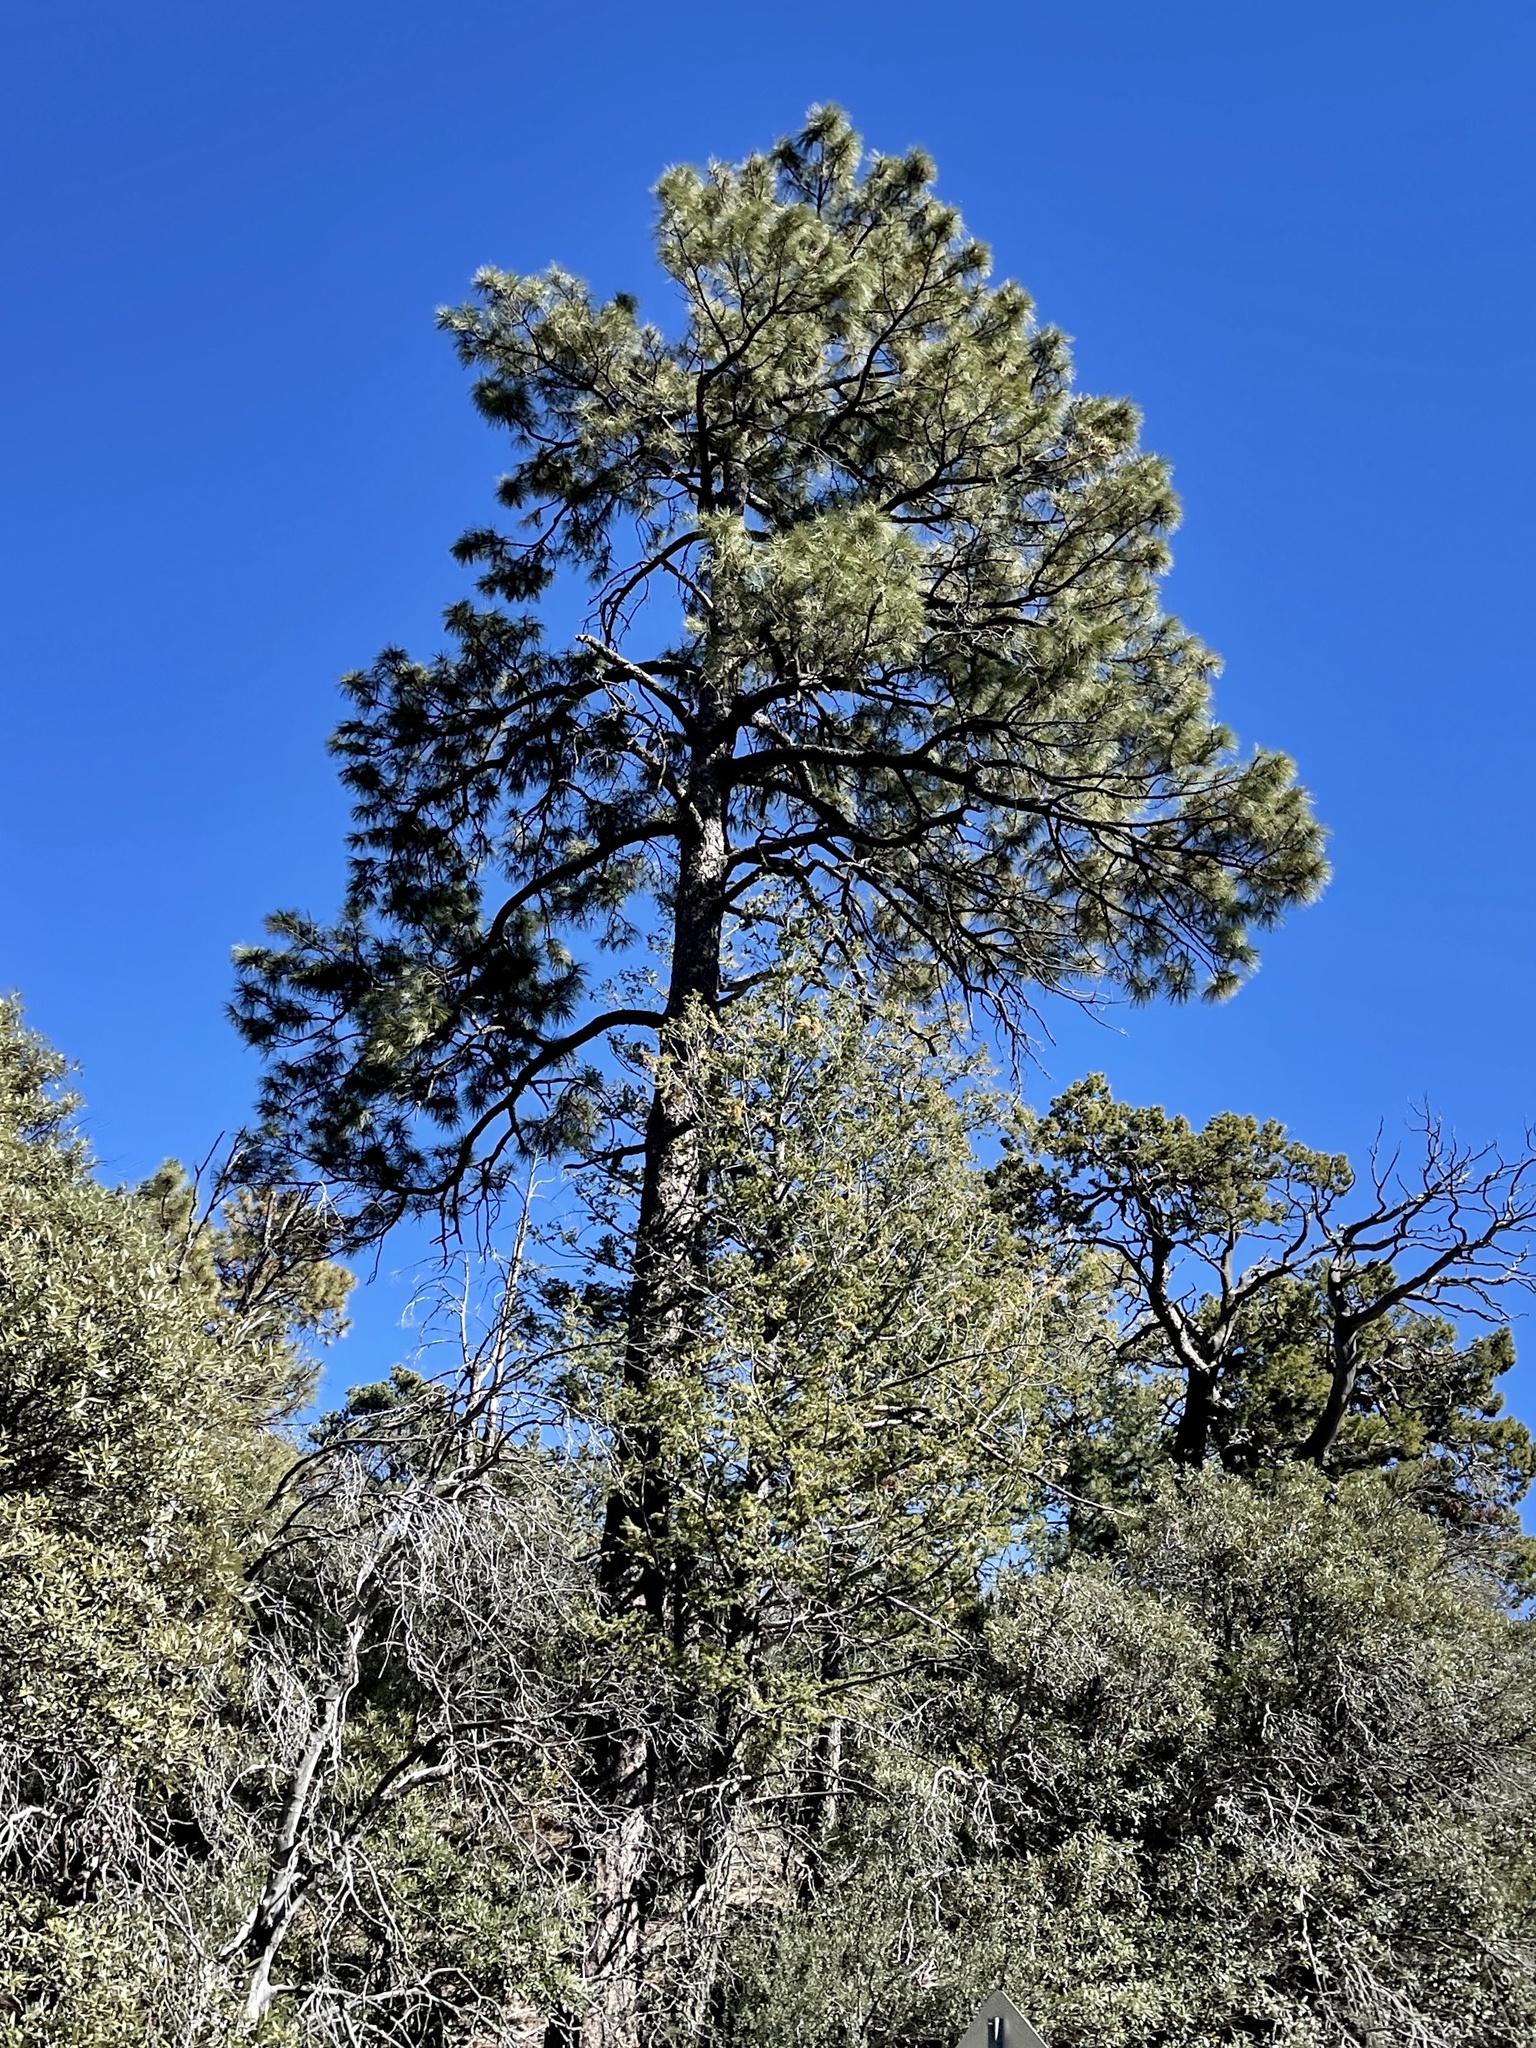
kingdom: Plantae
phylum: Tracheophyta
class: Pinopsida
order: Pinales
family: Pinaceae
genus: Pinus
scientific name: Pinus ponderosa
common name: Western yellow-pine
